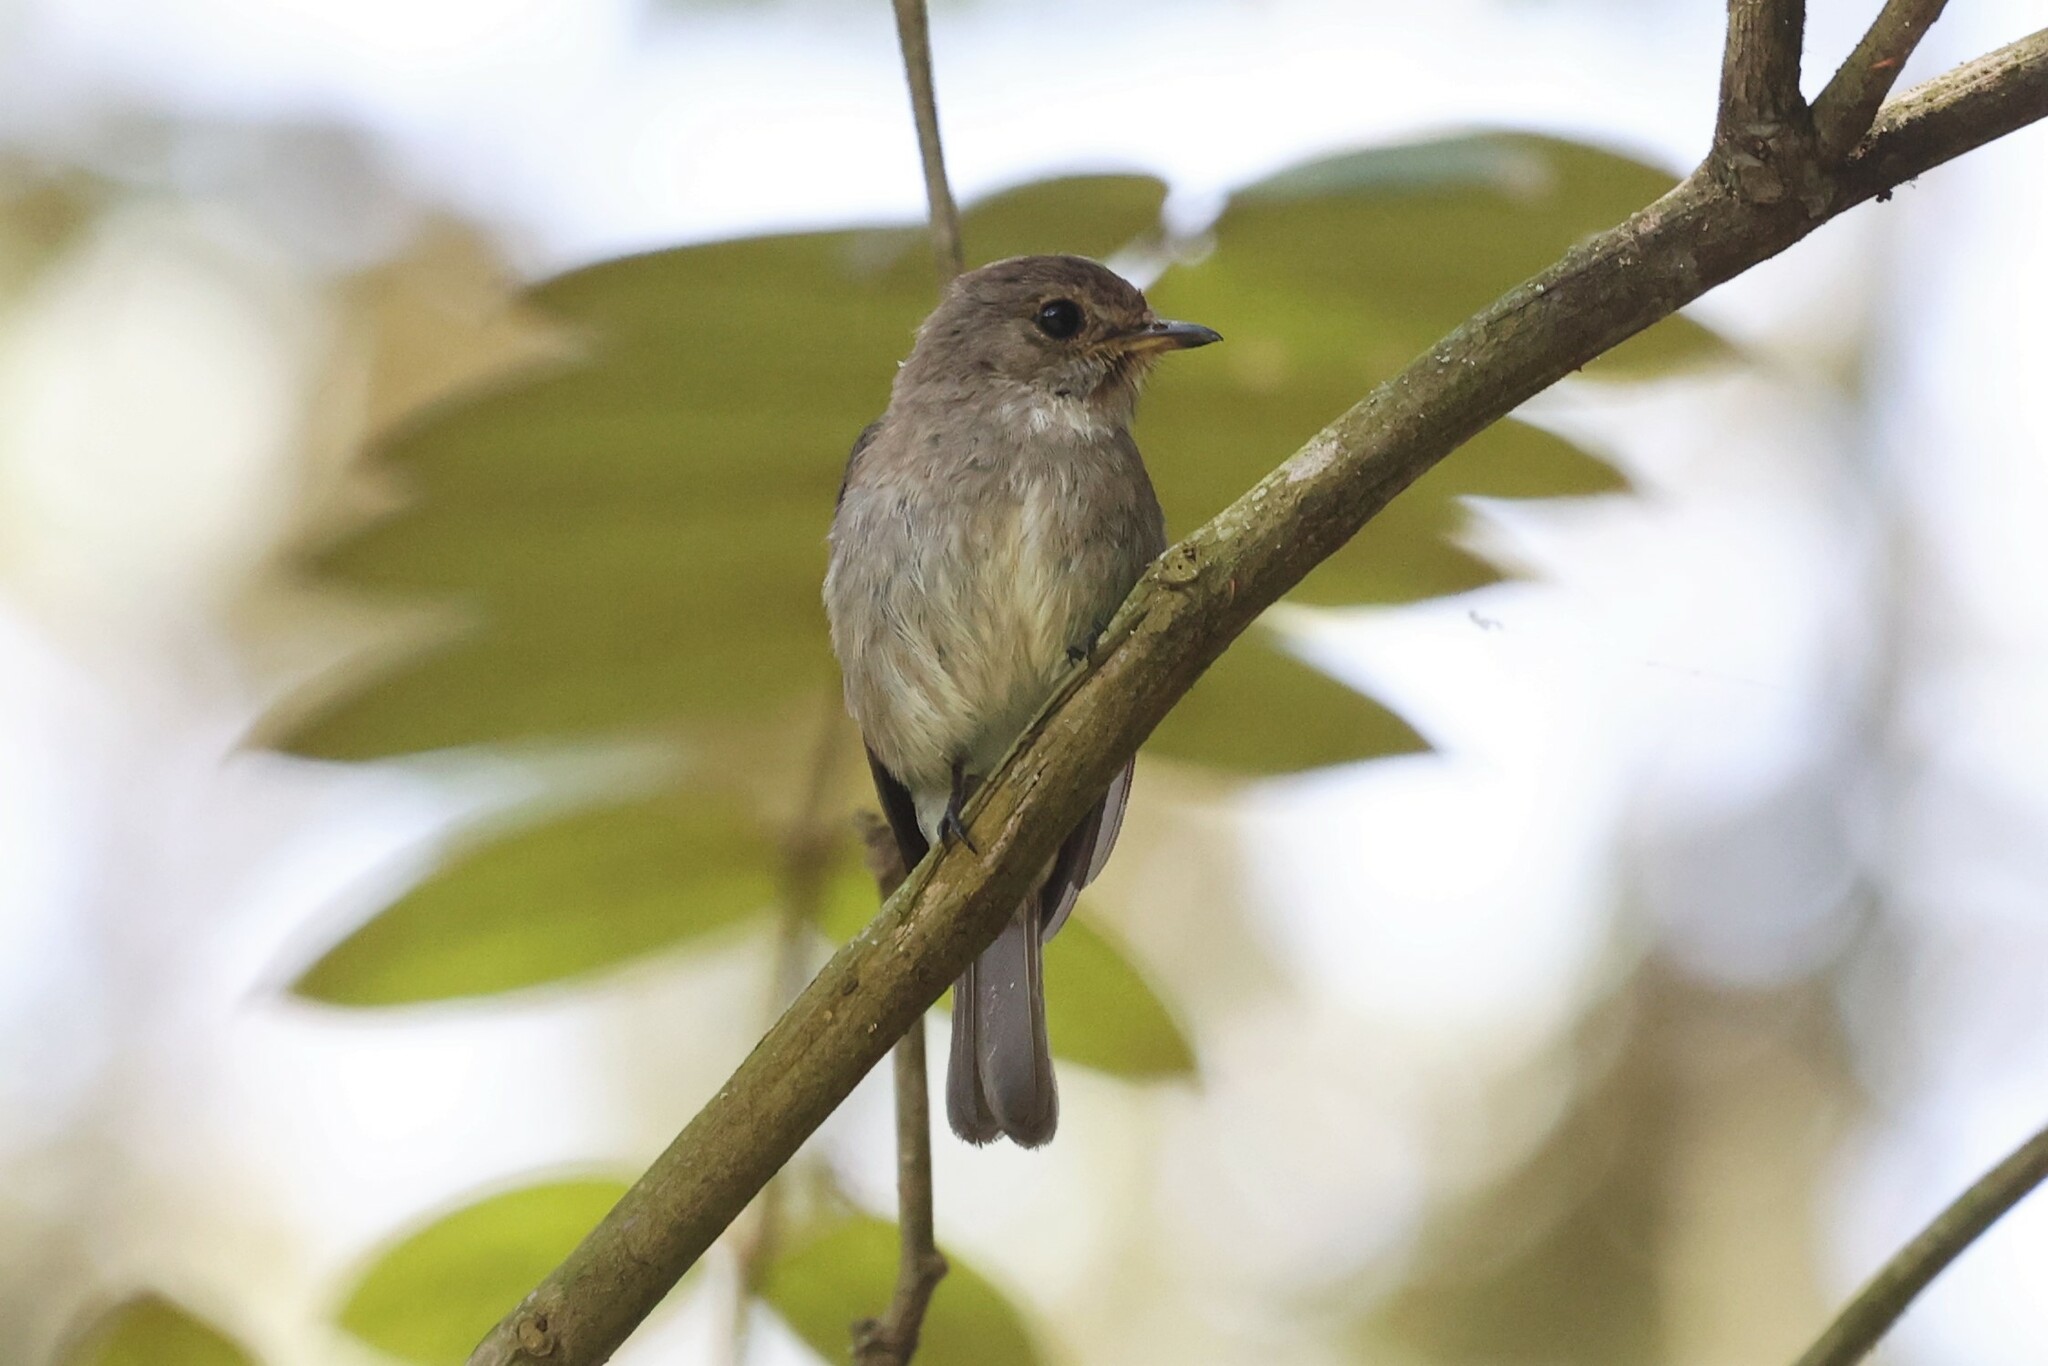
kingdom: Animalia
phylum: Chordata
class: Aves
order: Passeriformes
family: Muscicapidae
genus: Muscicapa
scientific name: Muscicapa adusta
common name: African dusky flycatcher
